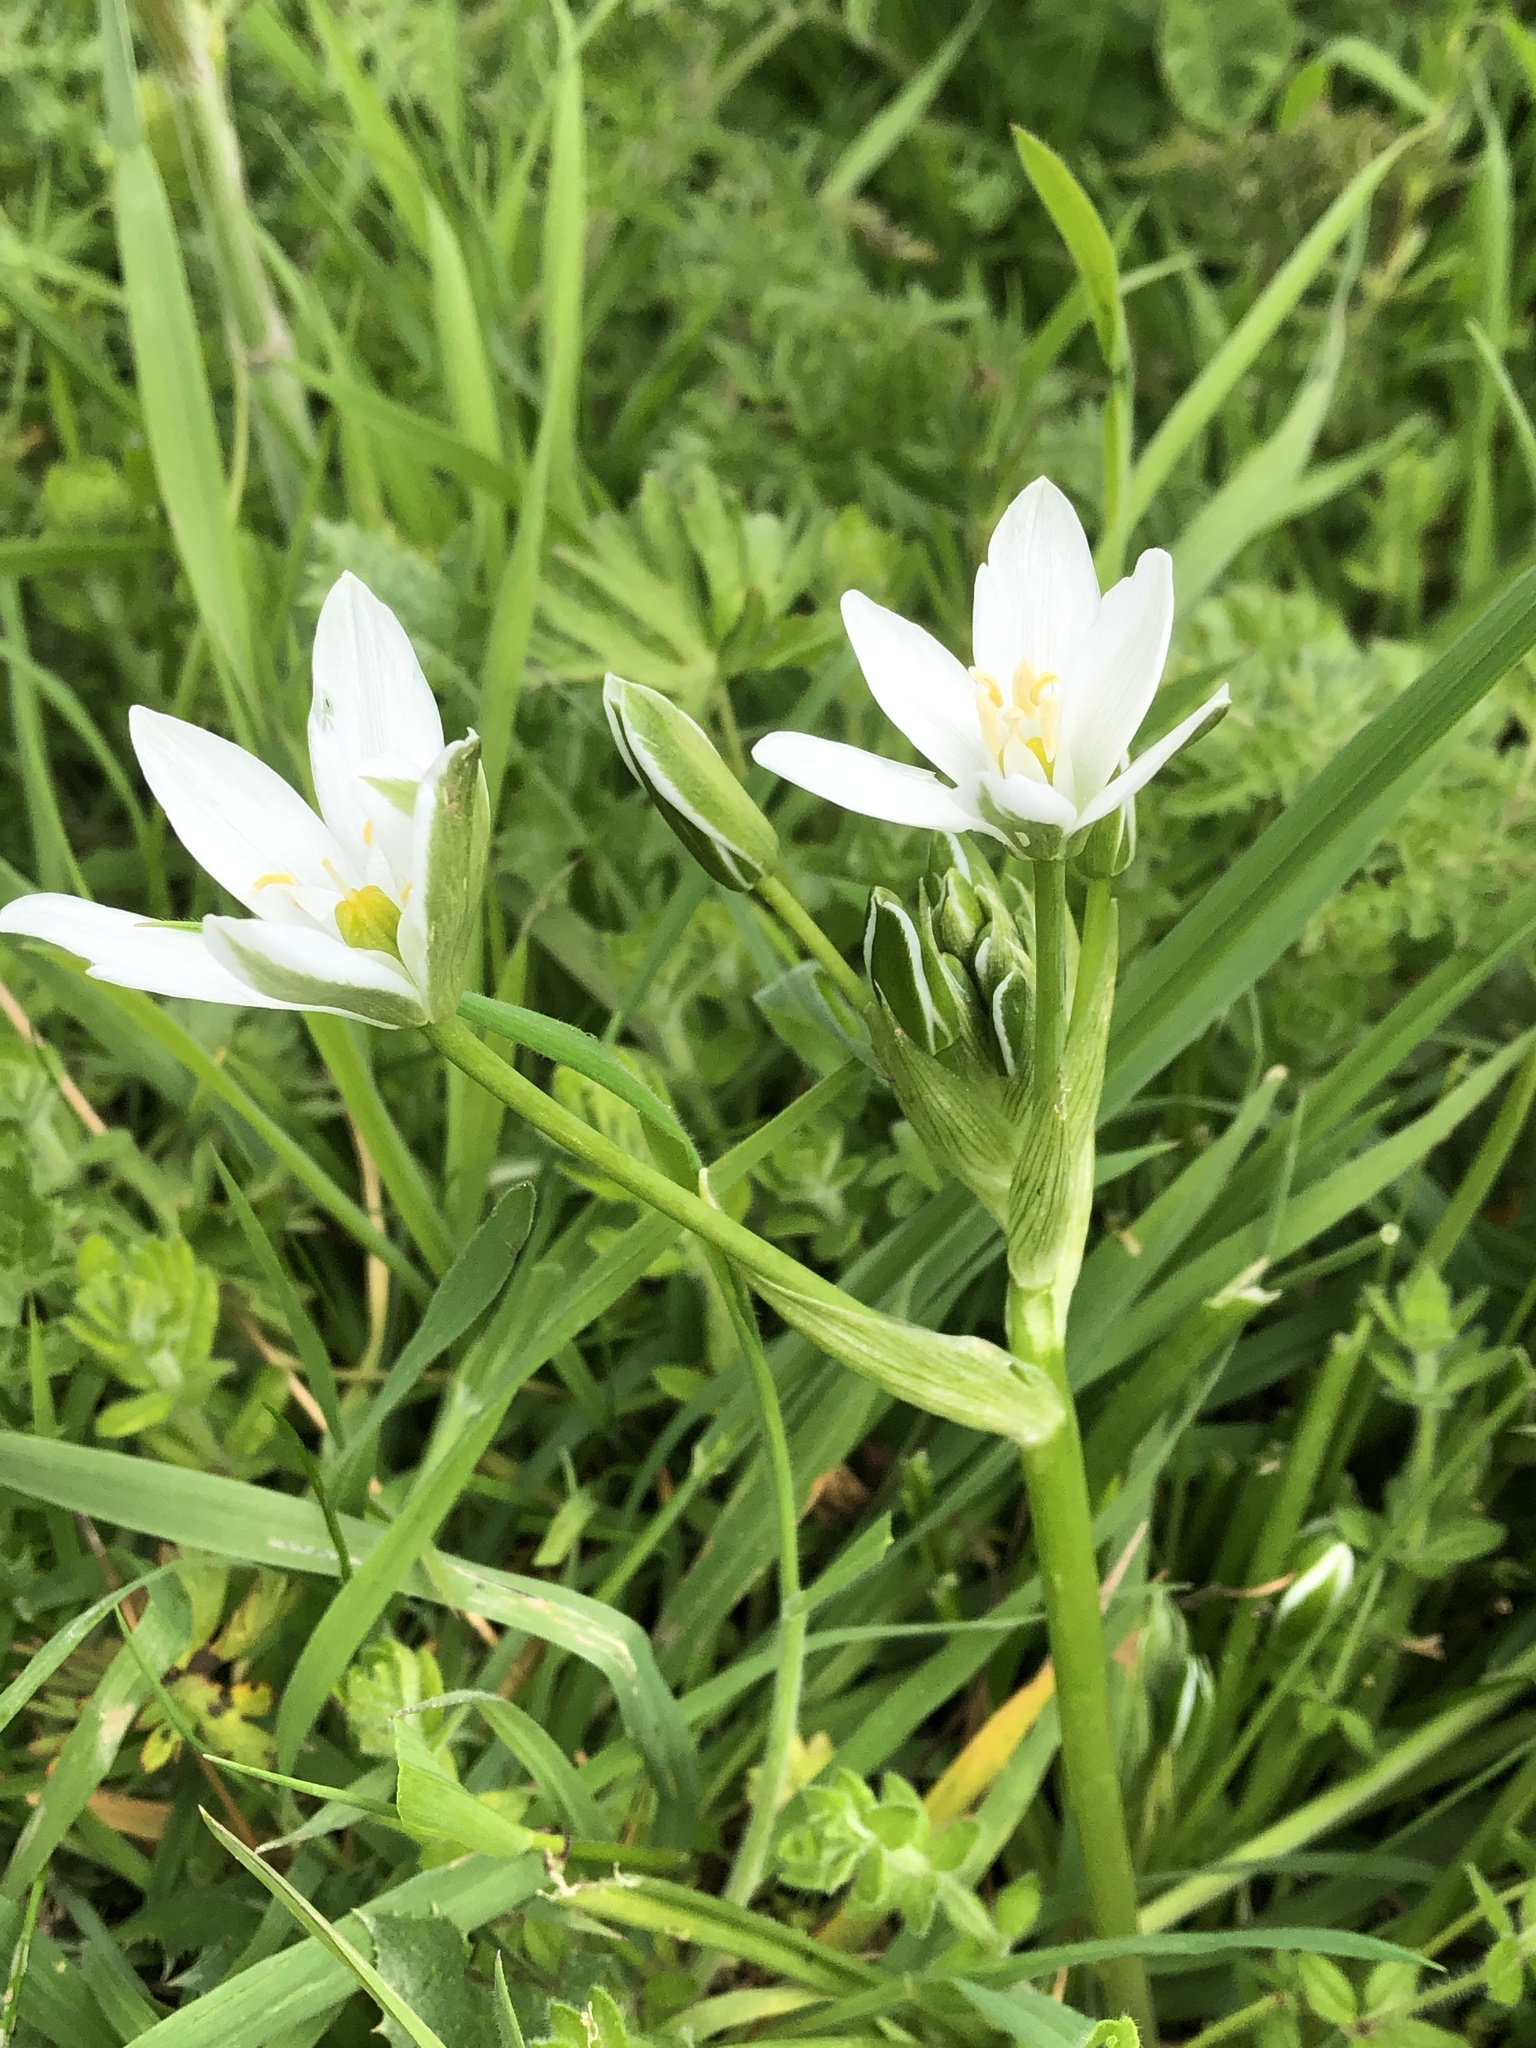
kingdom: Plantae
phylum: Tracheophyta
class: Liliopsida
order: Asparagales
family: Asparagaceae
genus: Ornithogalum
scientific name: Ornithogalum umbellatum
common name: Garden star-of-bethlehem
